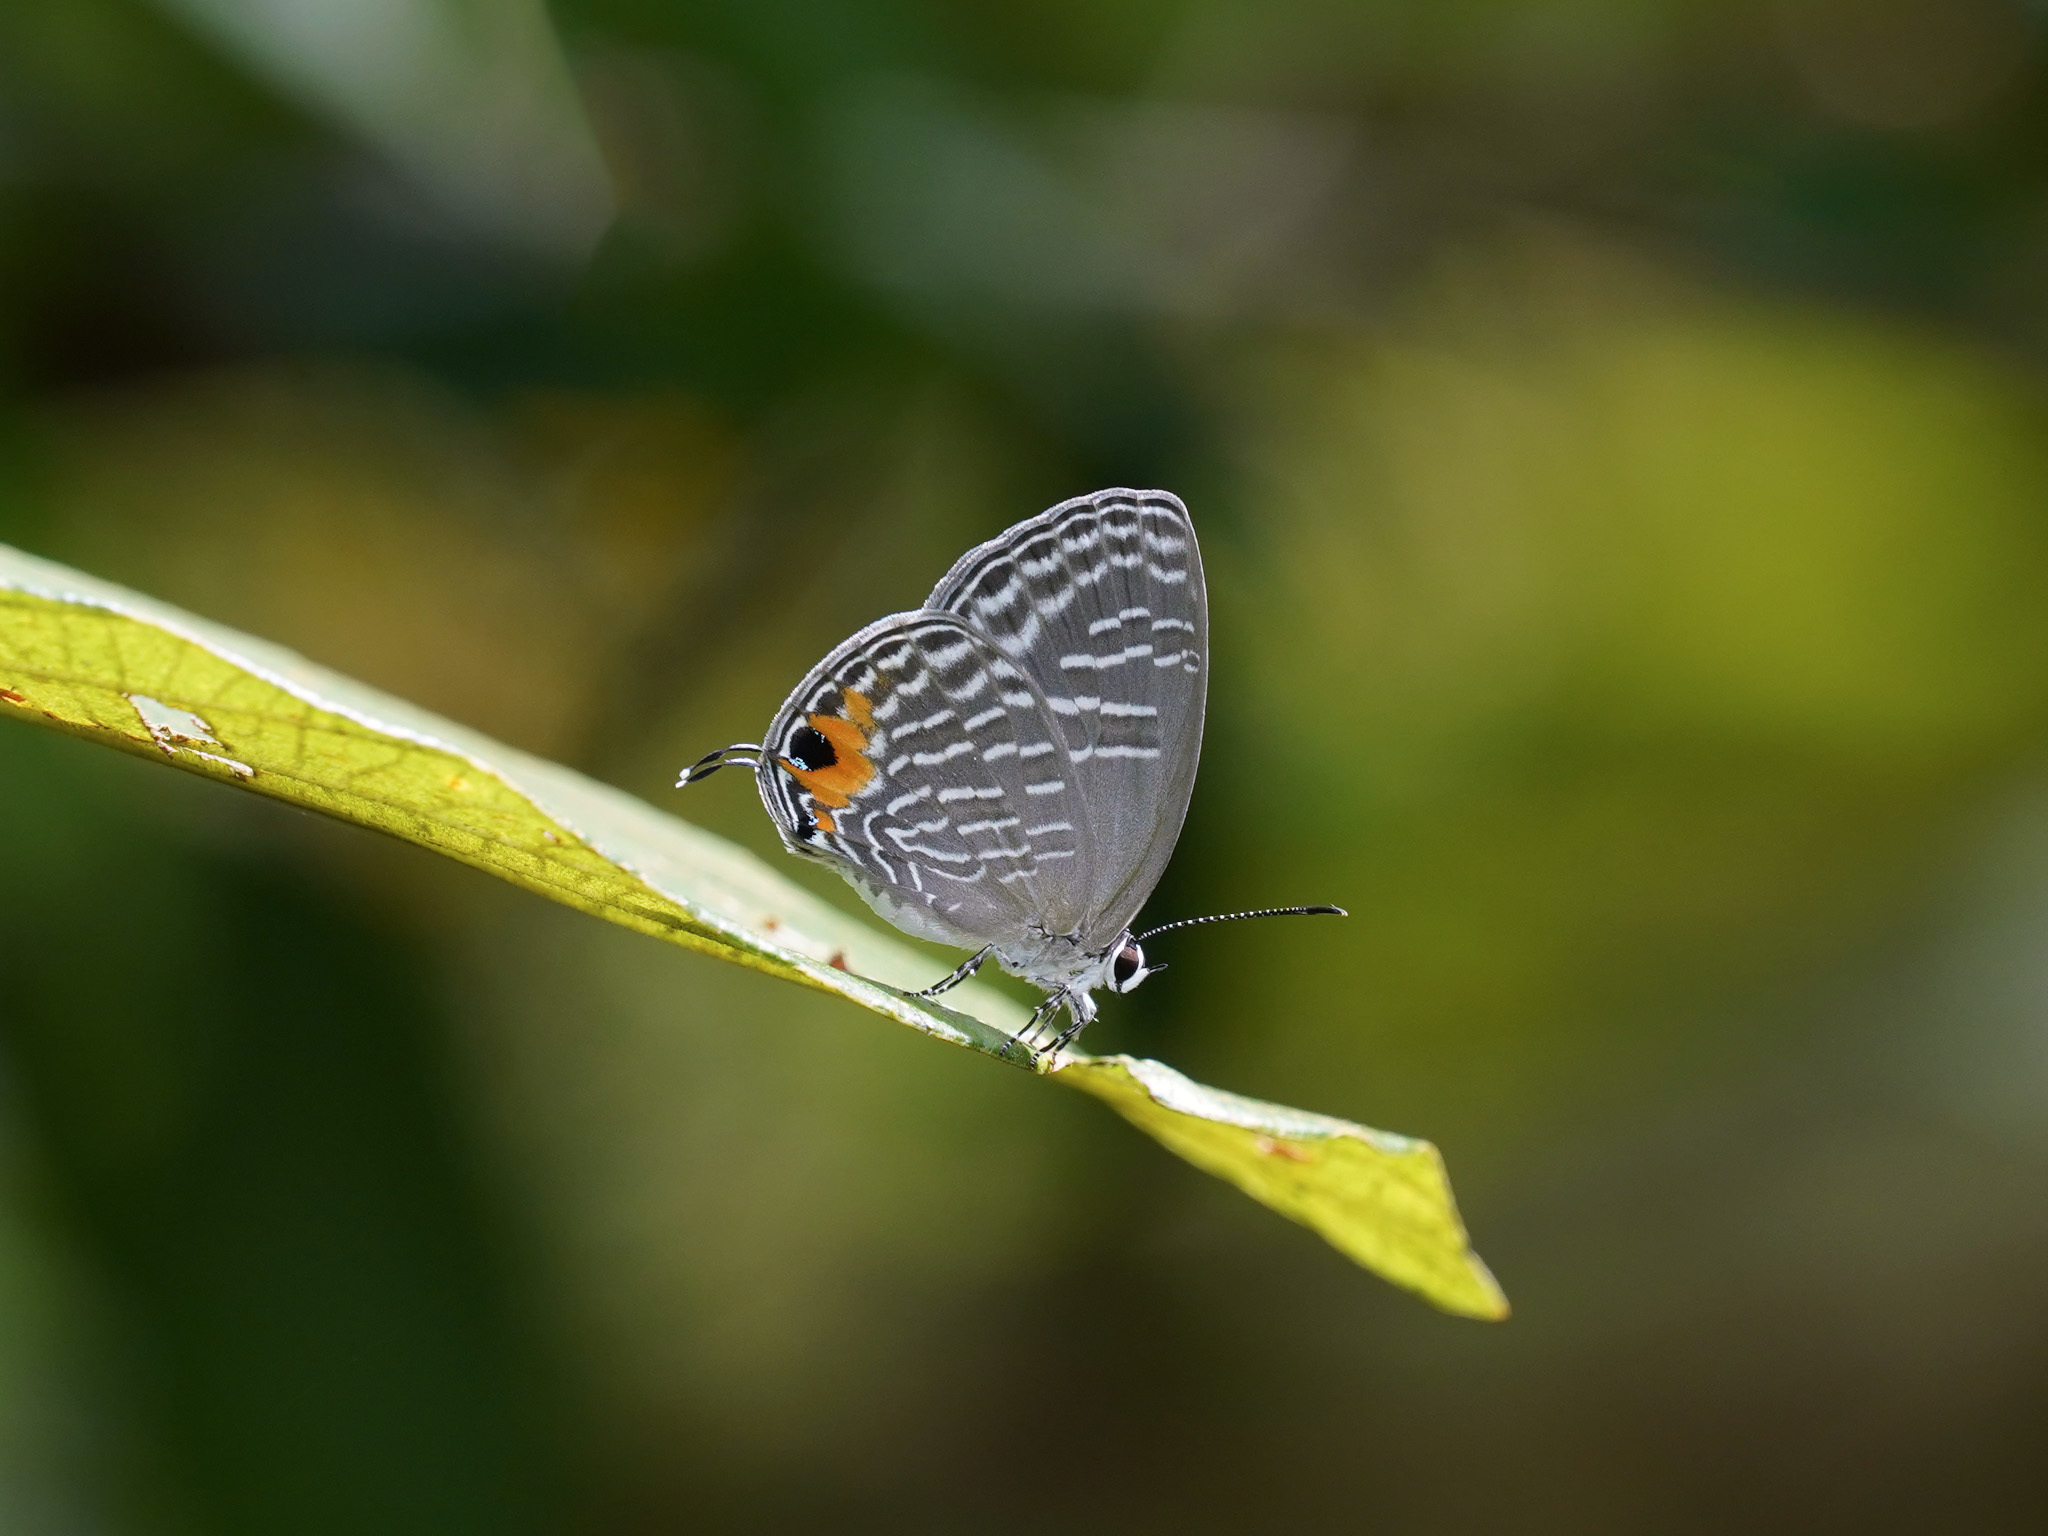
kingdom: Animalia
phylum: Arthropoda
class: Insecta
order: Lepidoptera
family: Lycaenidae
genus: Jamides
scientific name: Jamides alecto
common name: Metallic cerulean
